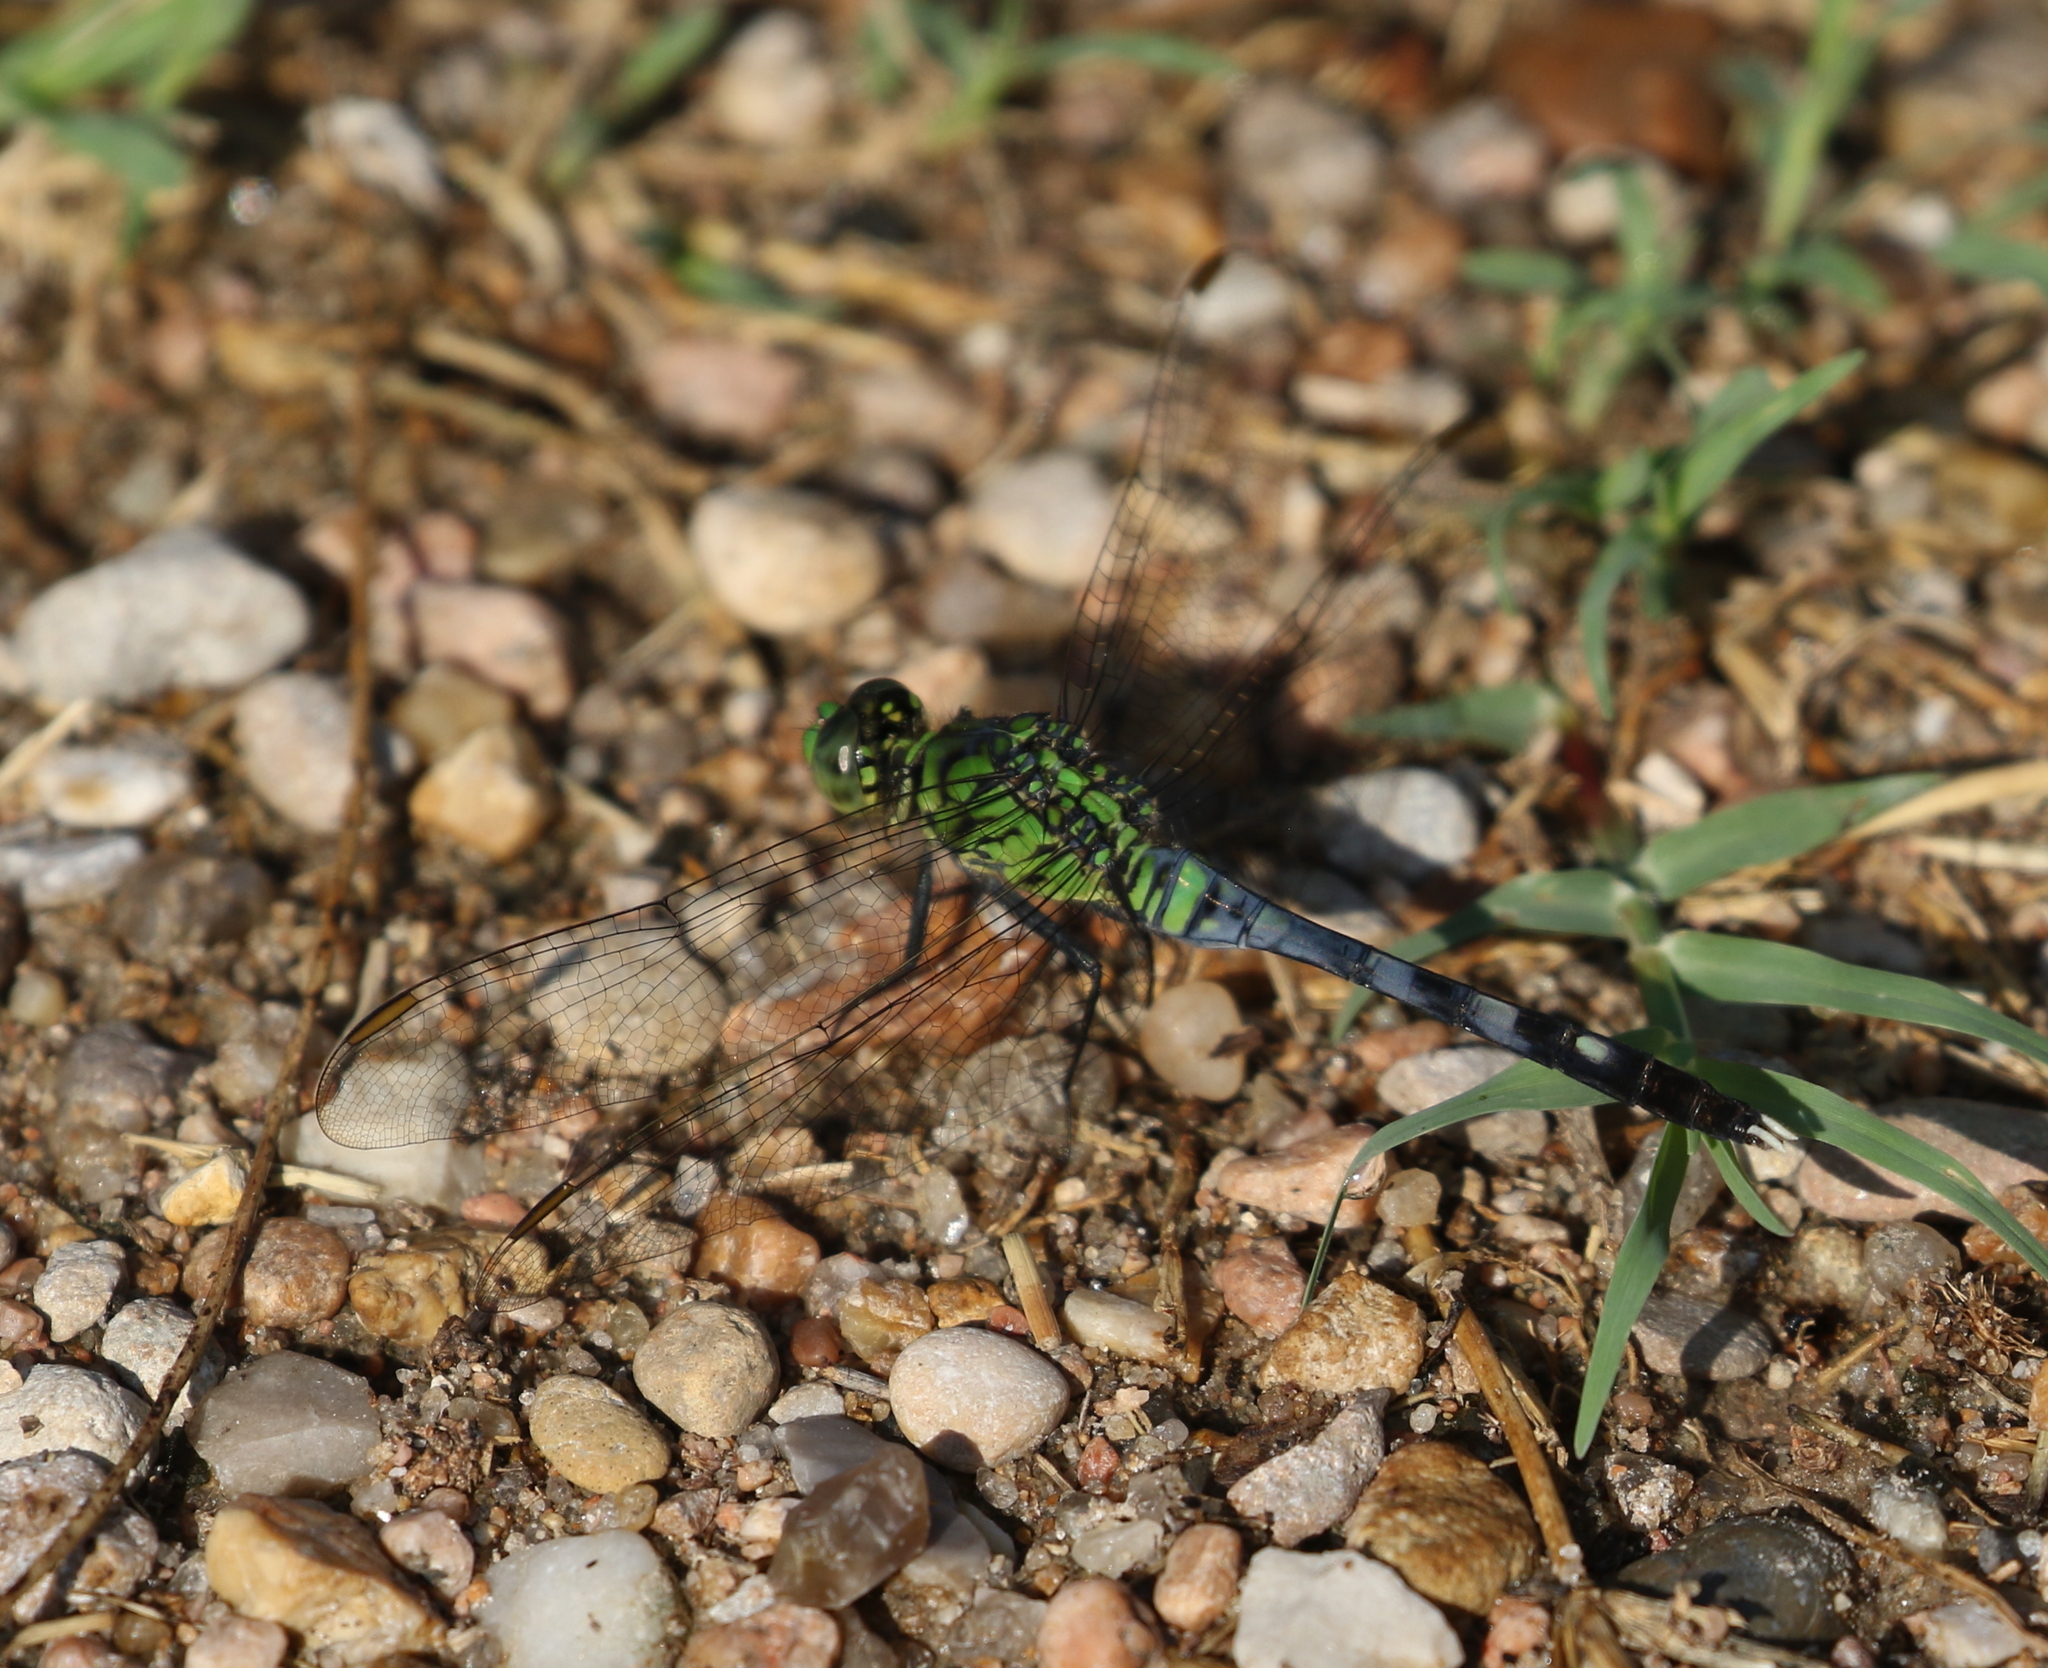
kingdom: Animalia
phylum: Arthropoda
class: Insecta
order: Odonata
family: Libellulidae
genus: Erythemis
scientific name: Erythemis simplicicollis
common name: Eastern pondhawk
